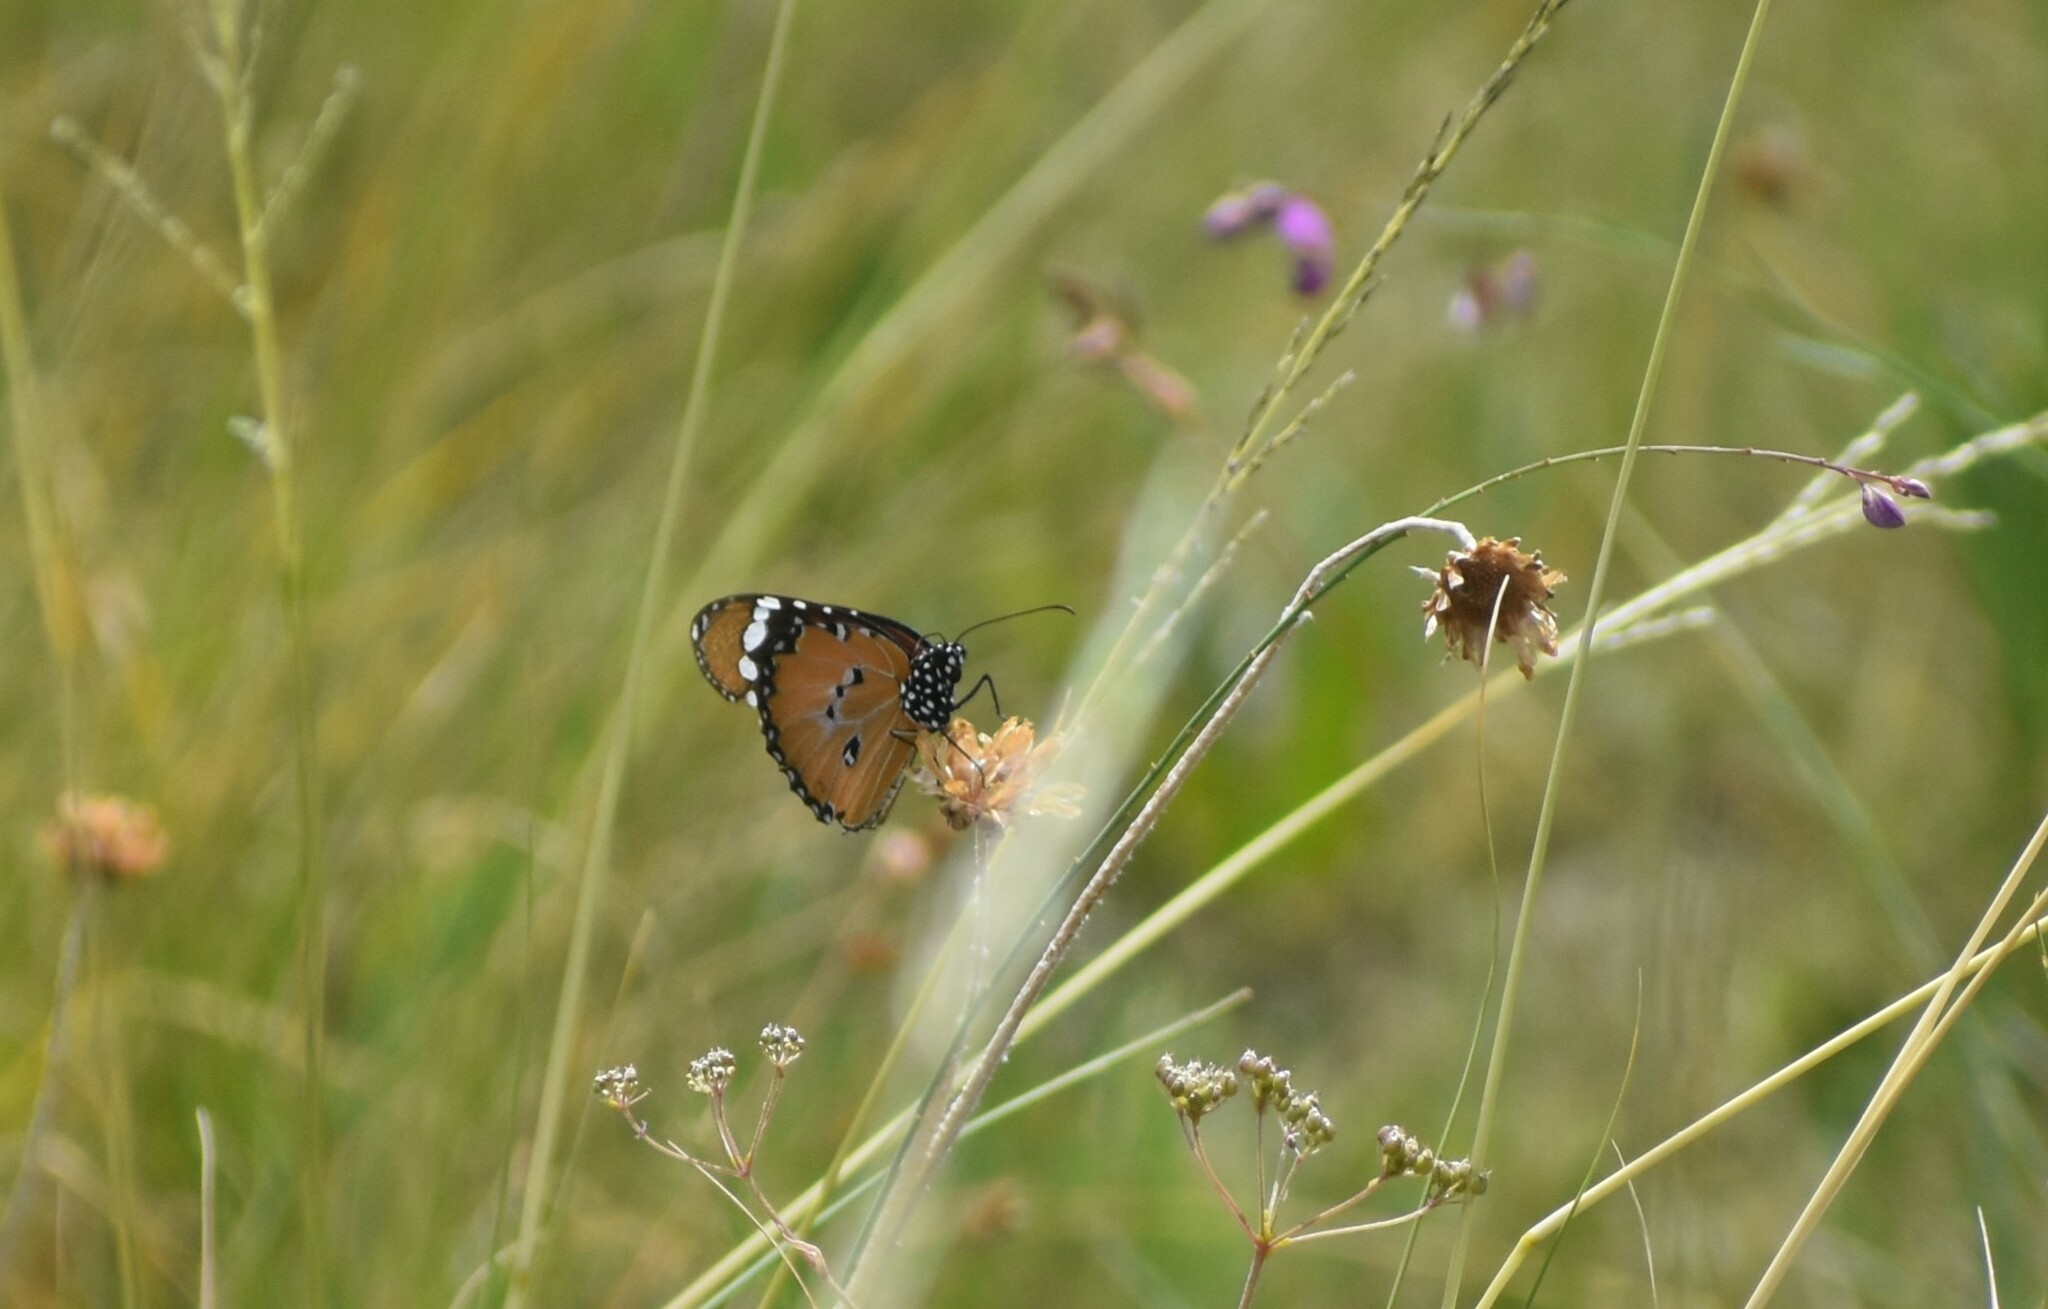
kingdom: Animalia
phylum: Arthropoda
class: Insecta
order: Lepidoptera
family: Nymphalidae
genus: Danaus
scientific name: Danaus chrysippus
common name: Plain tiger
